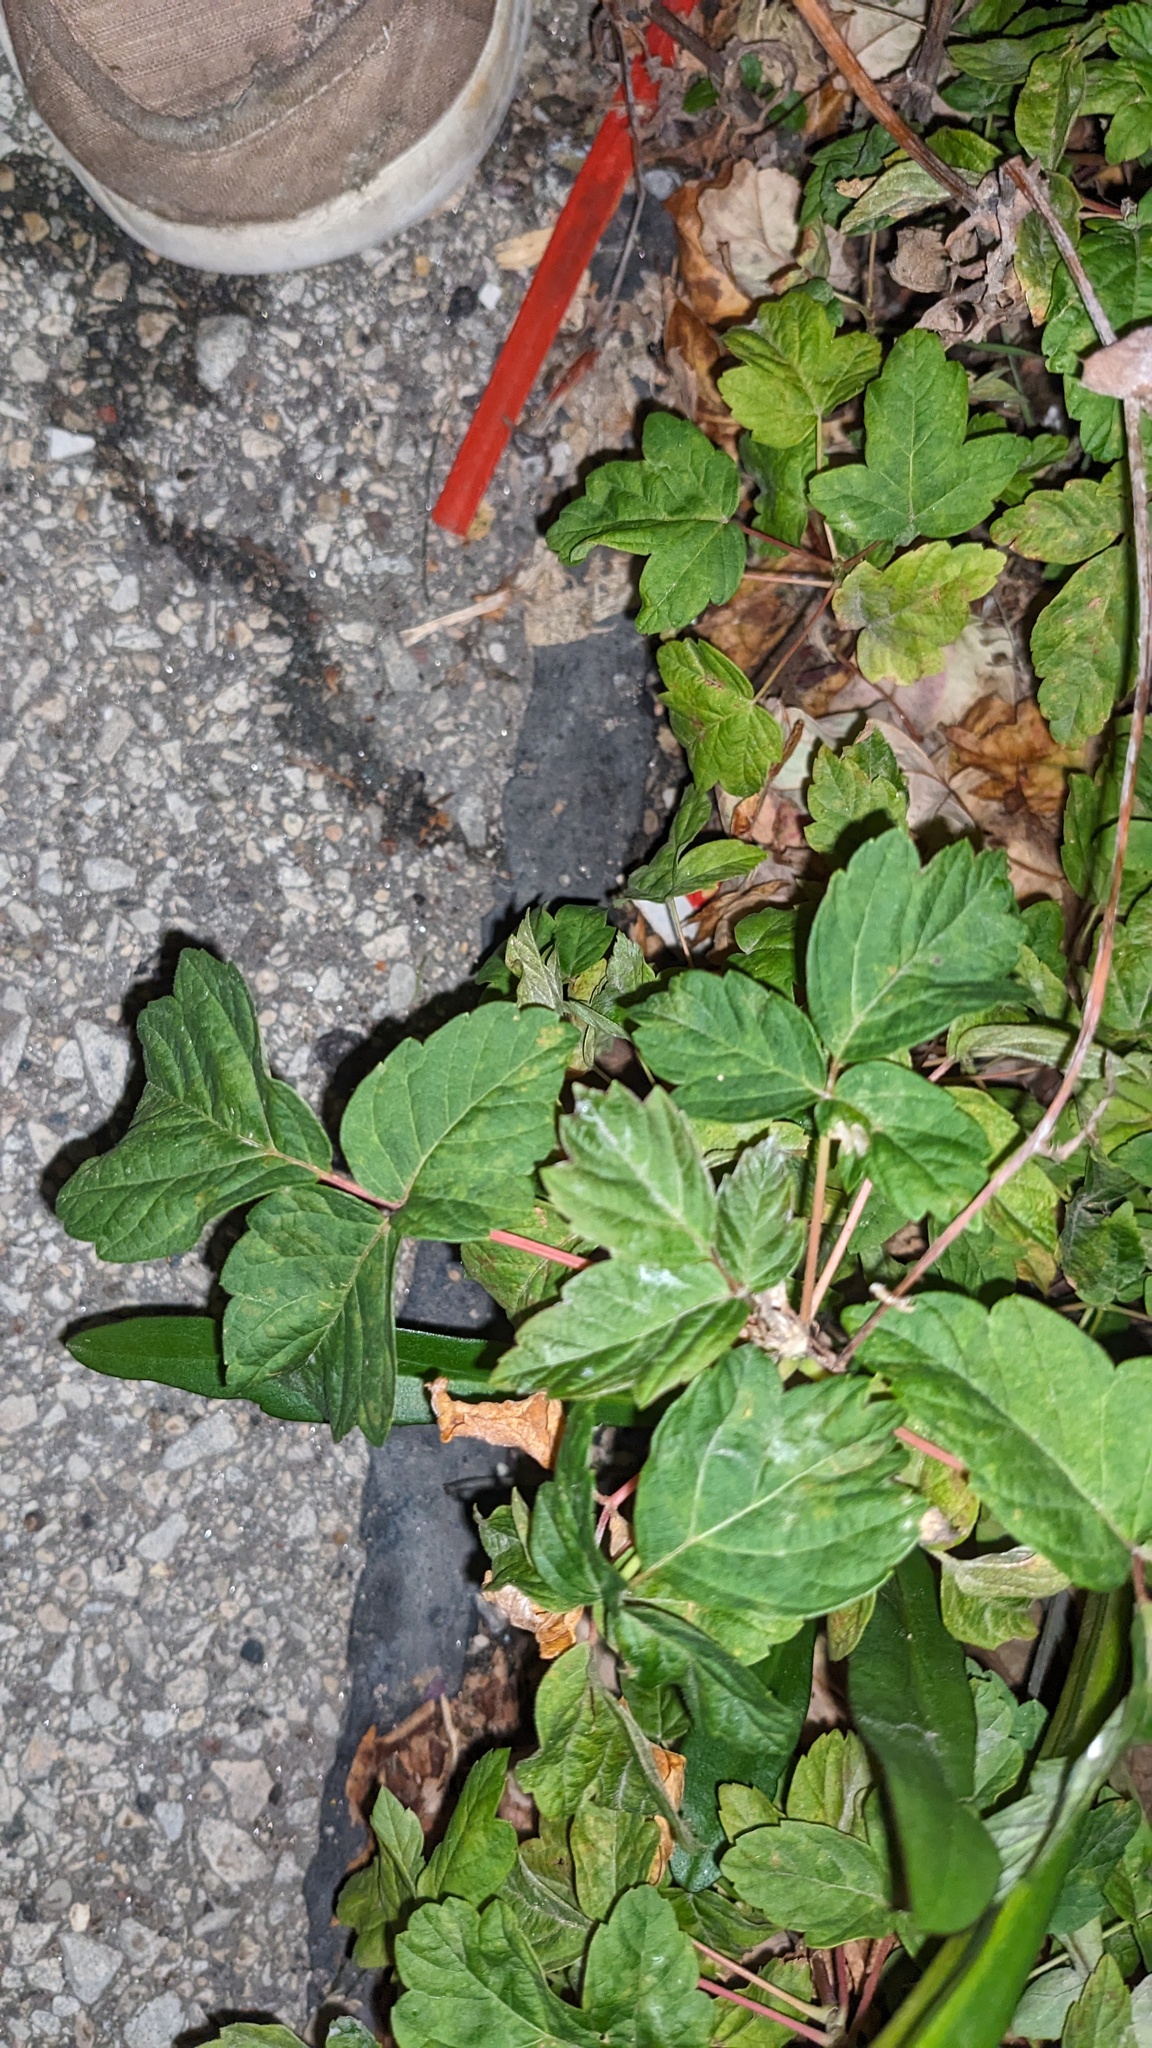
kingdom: Plantae
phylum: Tracheophyta
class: Magnoliopsida
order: Sapindales
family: Sapindaceae
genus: Acer
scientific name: Acer negundo
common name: Ashleaf maple
